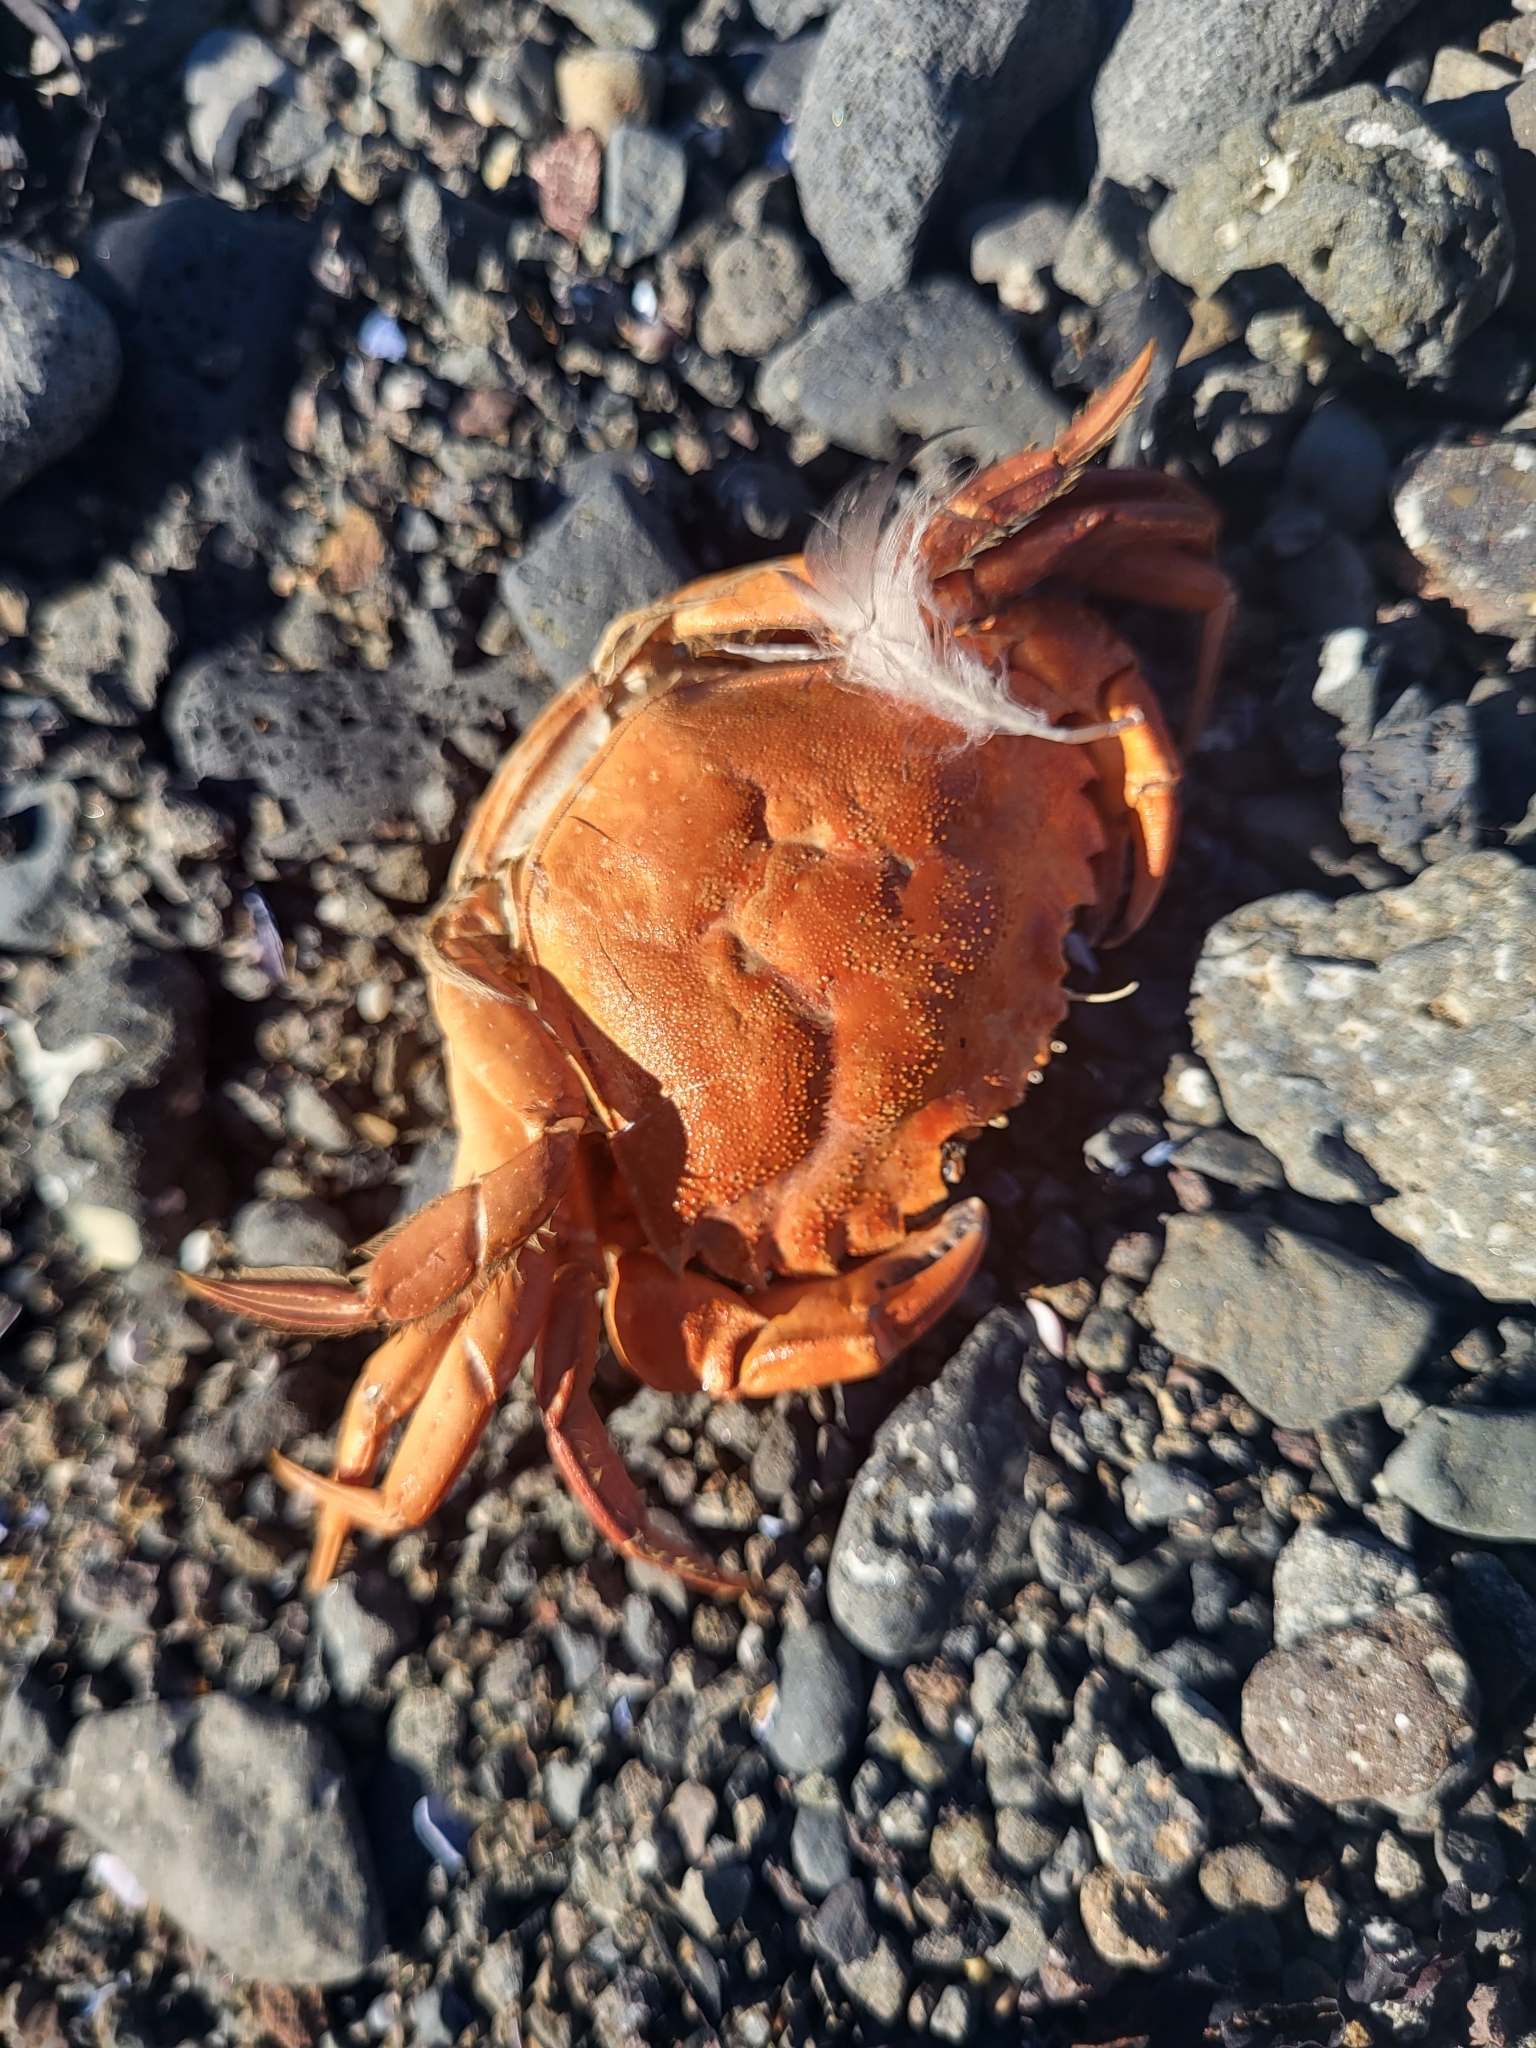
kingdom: Animalia
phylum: Arthropoda
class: Malacostraca
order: Decapoda
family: Carcinidae
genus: Carcinus
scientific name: Carcinus maenas
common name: European green crab
